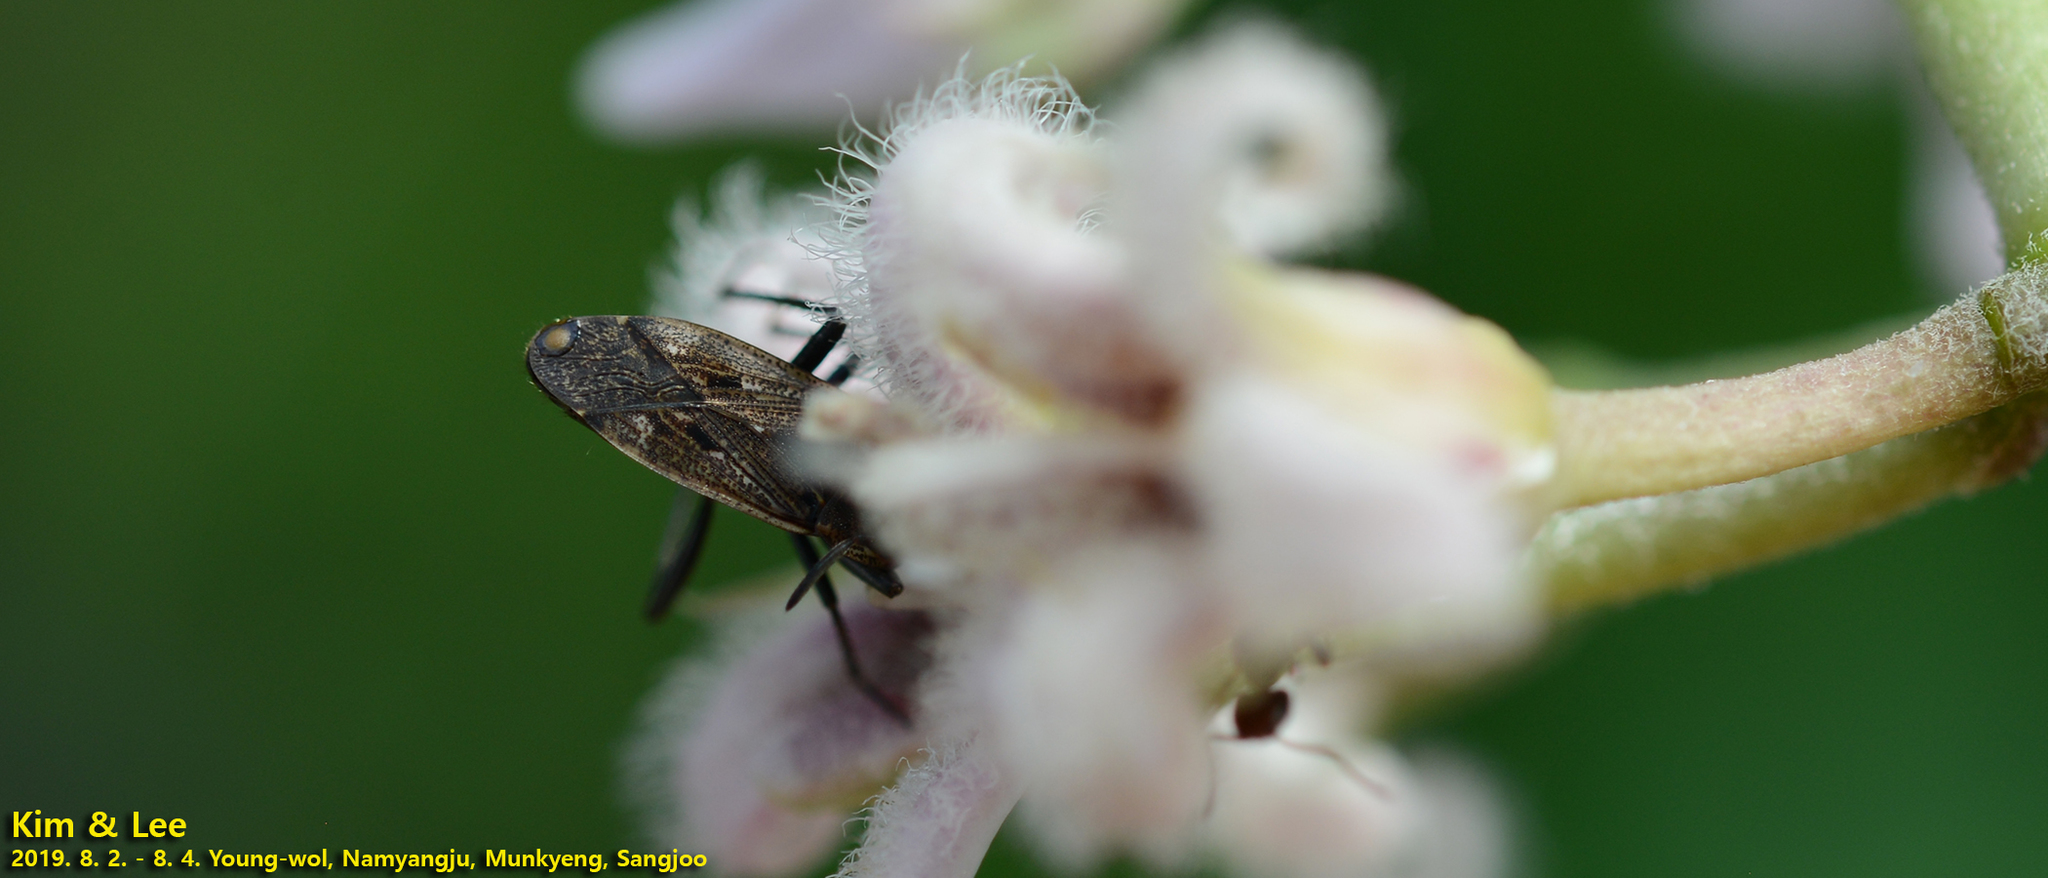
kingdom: Animalia
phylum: Arthropoda
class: Insecta
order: Hemiptera
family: Rhyparochromidae
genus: Panaorus
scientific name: Panaorus japonicus
